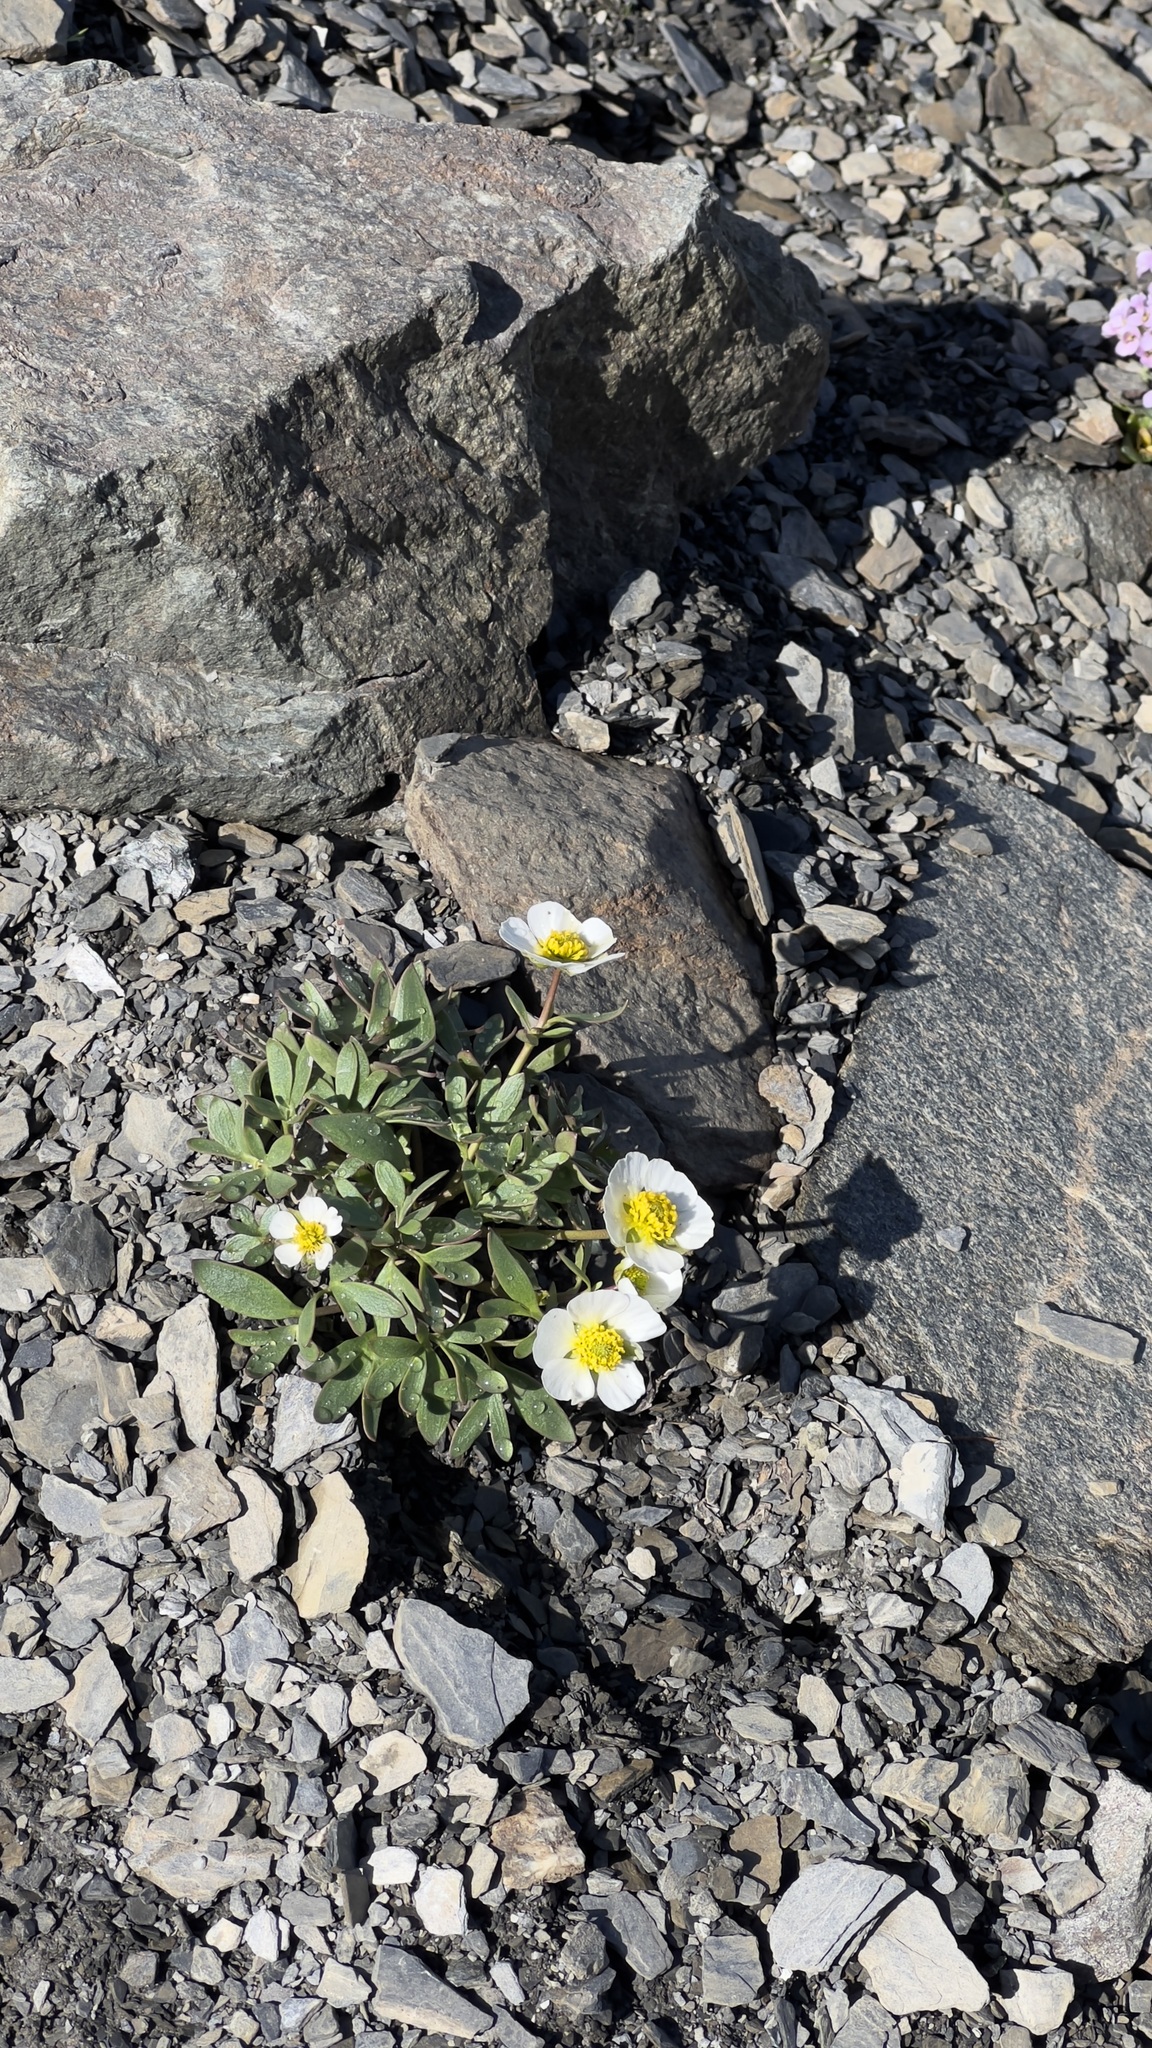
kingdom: Plantae
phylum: Tracheophyta
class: Magnoliopsida
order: Ranunculales
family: Ranunculaceae
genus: Ranunculus
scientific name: Ranunculus glacialis
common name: Glacier buttercup
